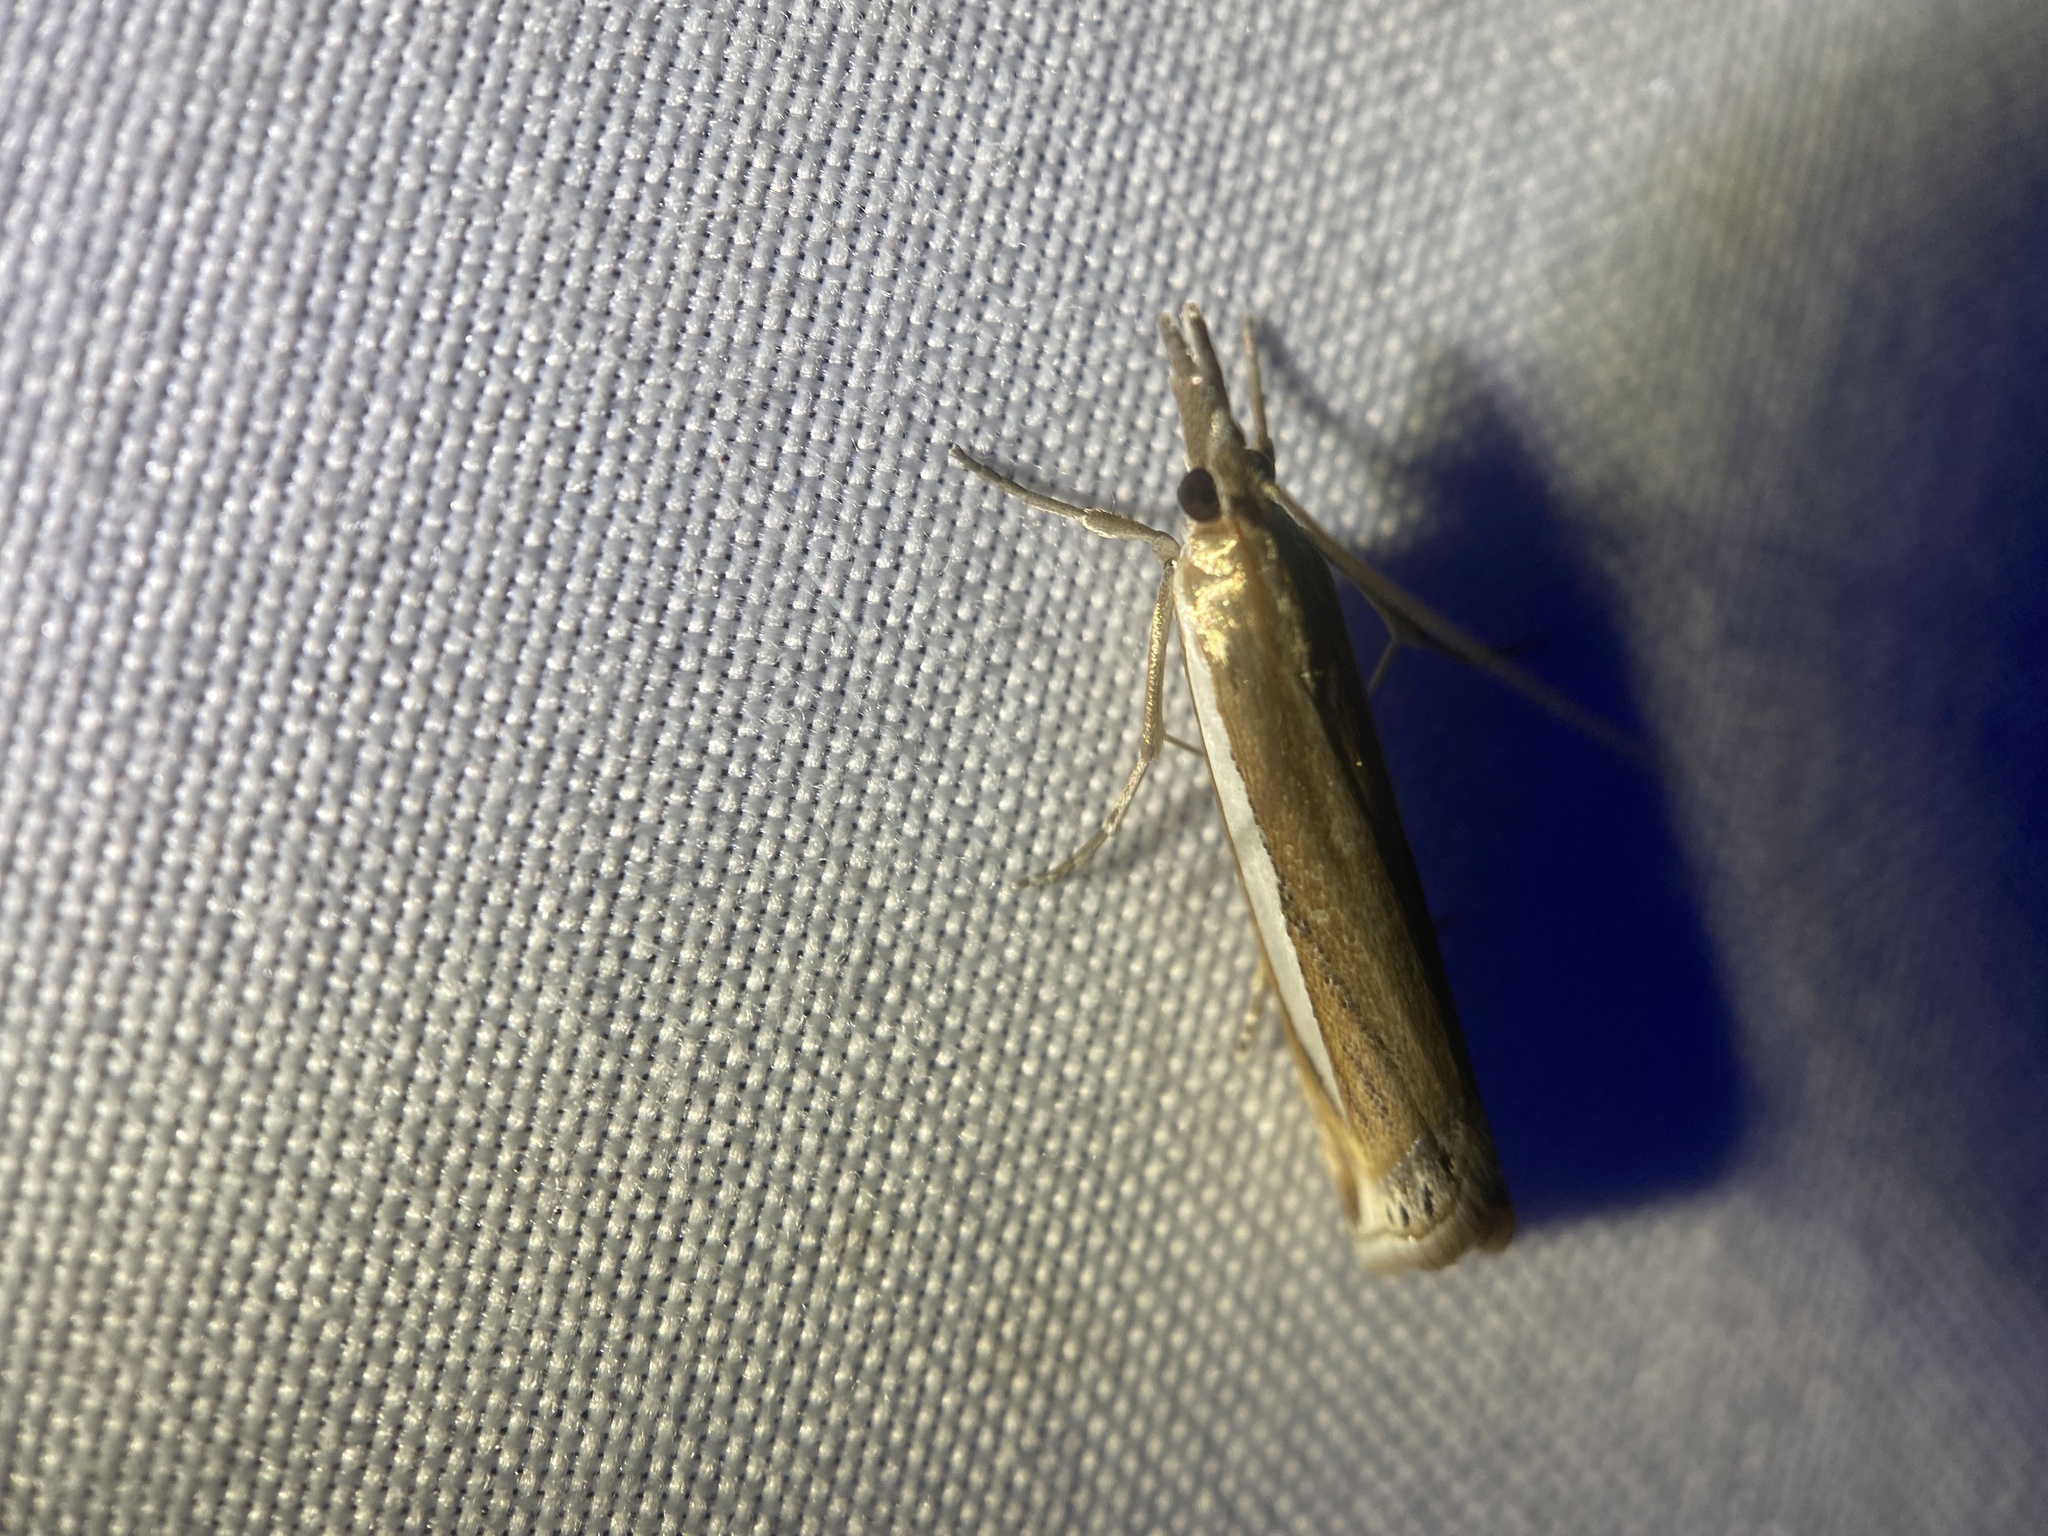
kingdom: Animalia
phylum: Arthropoda
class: Insecta
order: Lepidoptera
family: Crambidae
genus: Crambus
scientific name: Crambus
